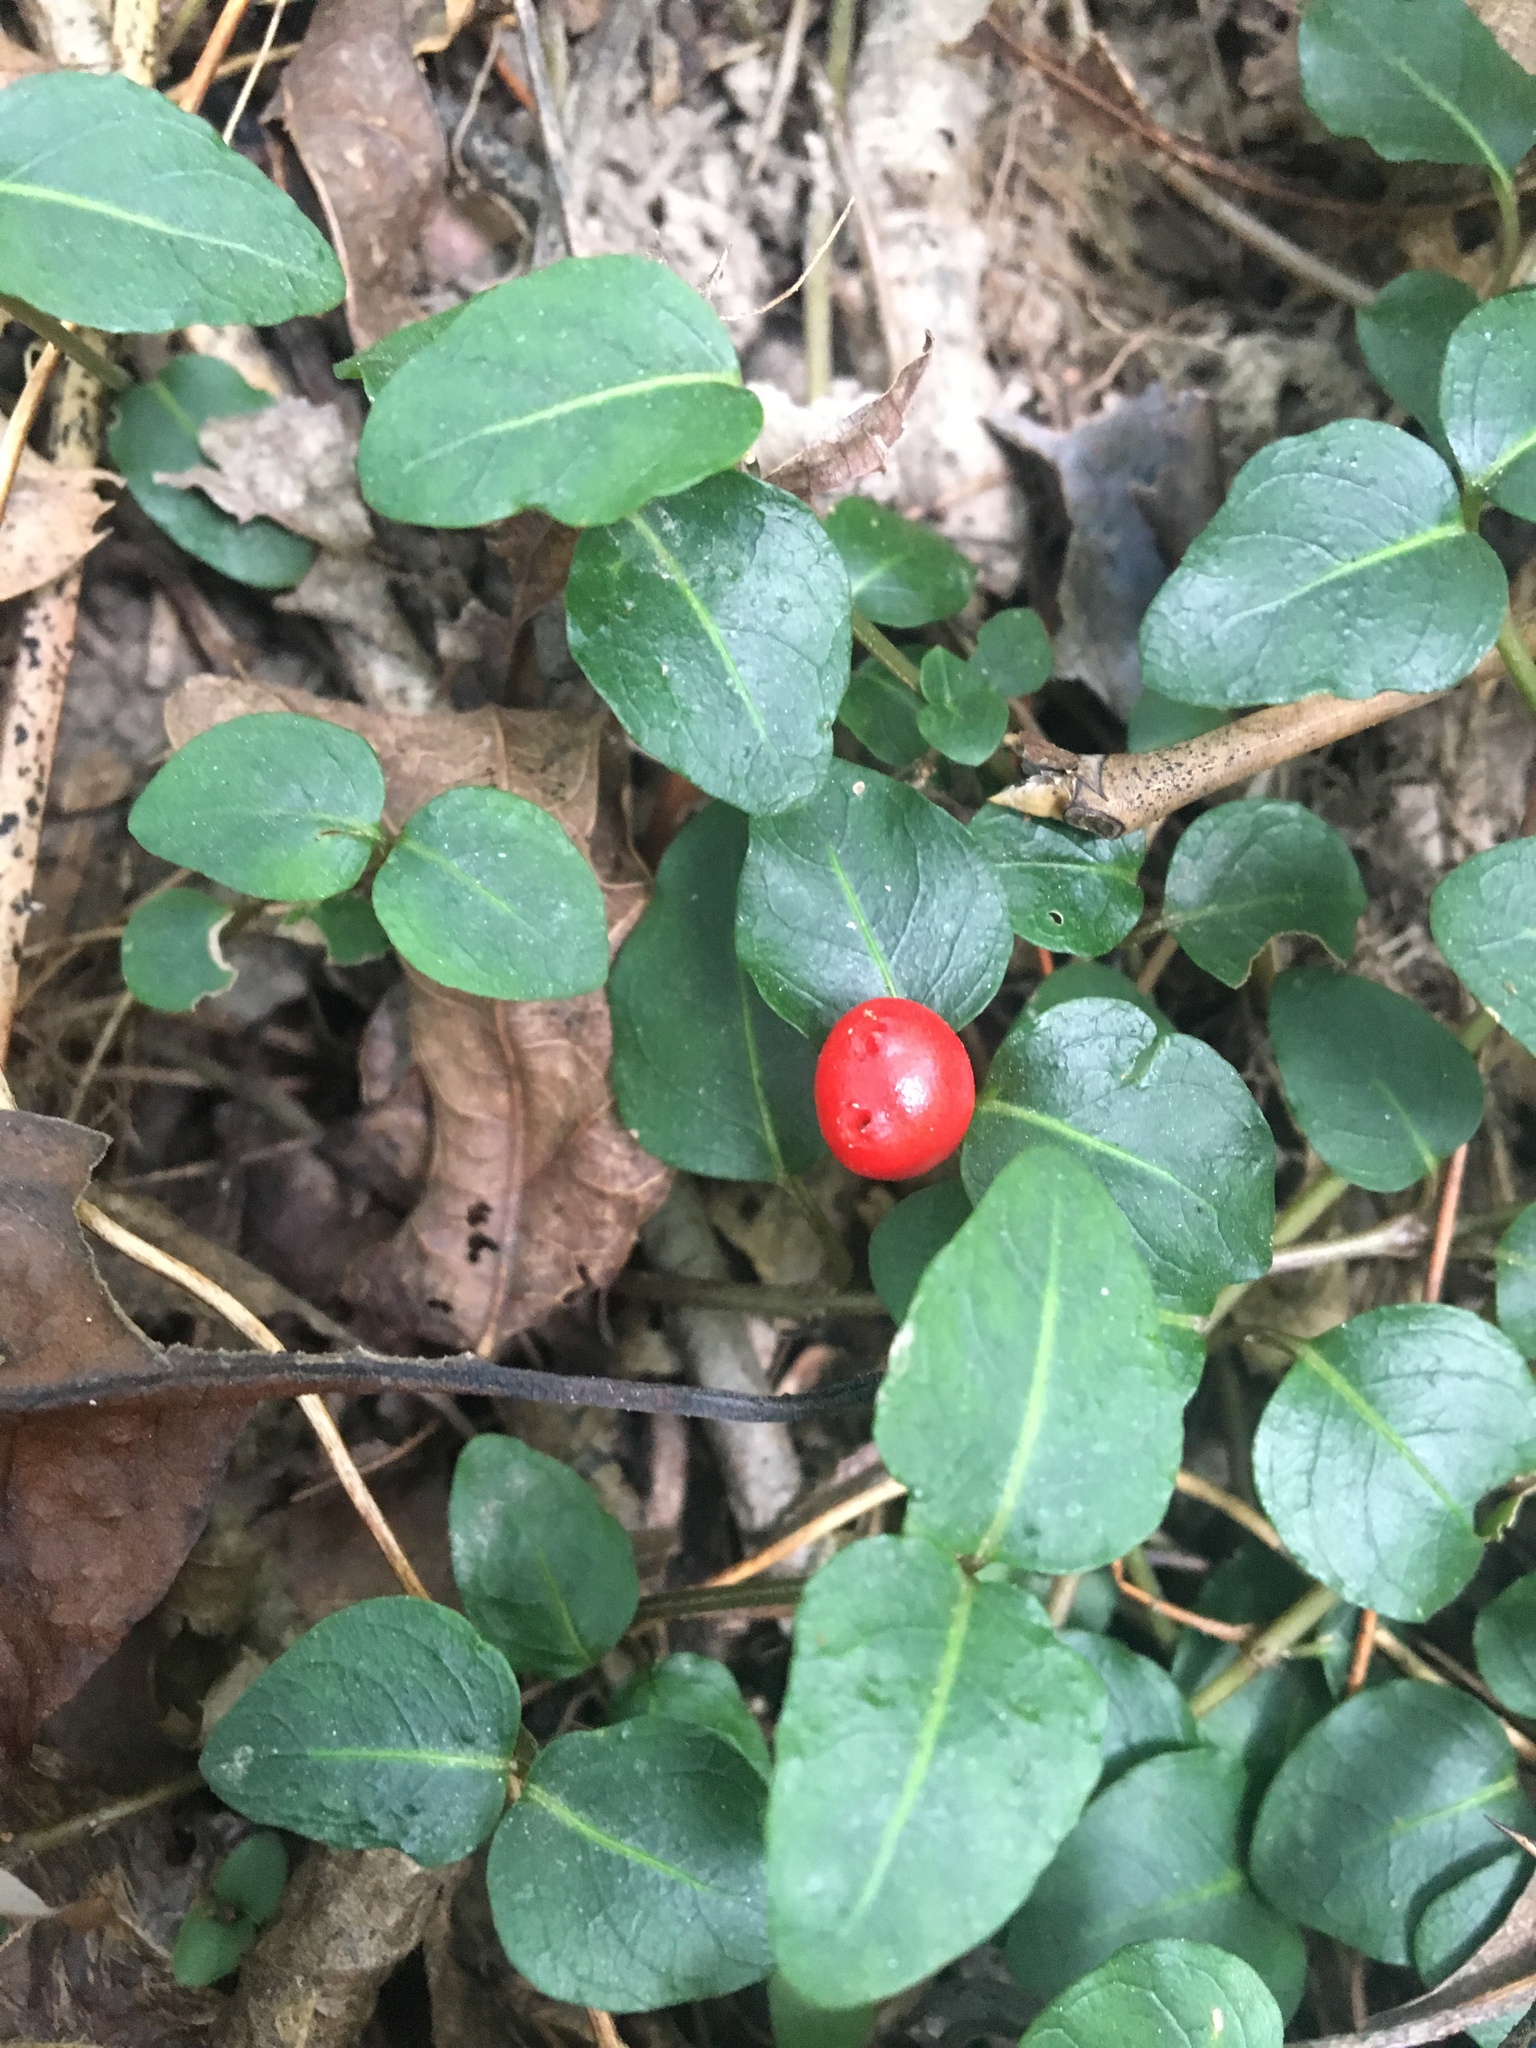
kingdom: Plantae
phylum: Tracheophyta
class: Magnoliopsida
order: Gentianales
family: Rubiaceae
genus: Mitchella
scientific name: Mitchella repens
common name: Partridge-berry
